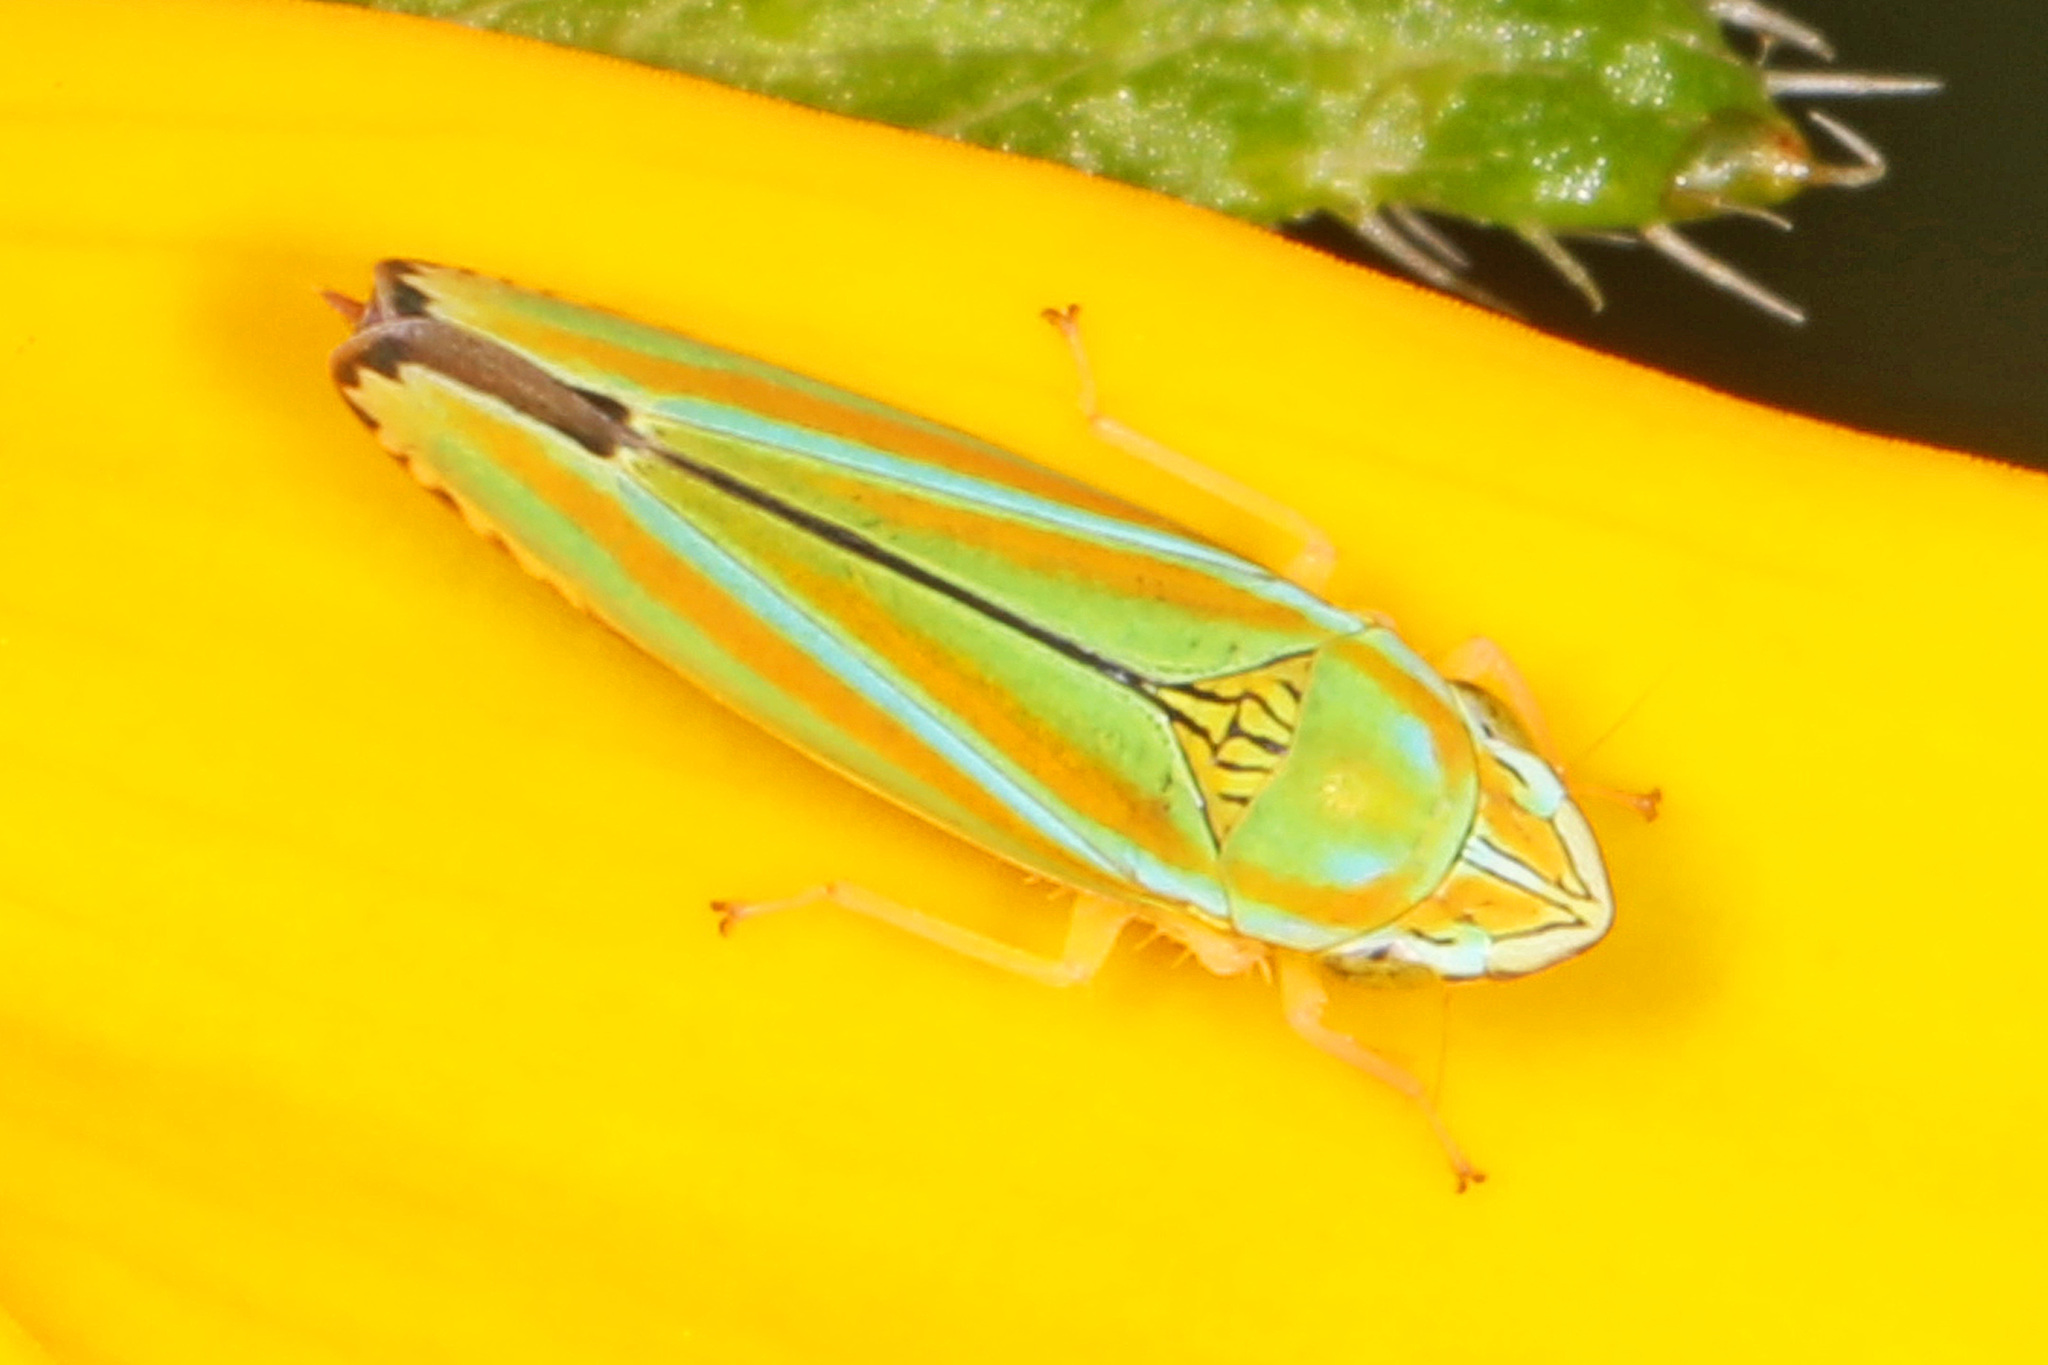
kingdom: Animalia
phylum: Arthropoda
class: Insecta
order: Hemiptera
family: Cicadellidae
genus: Graphocephala
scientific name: Graphocephala versuta
